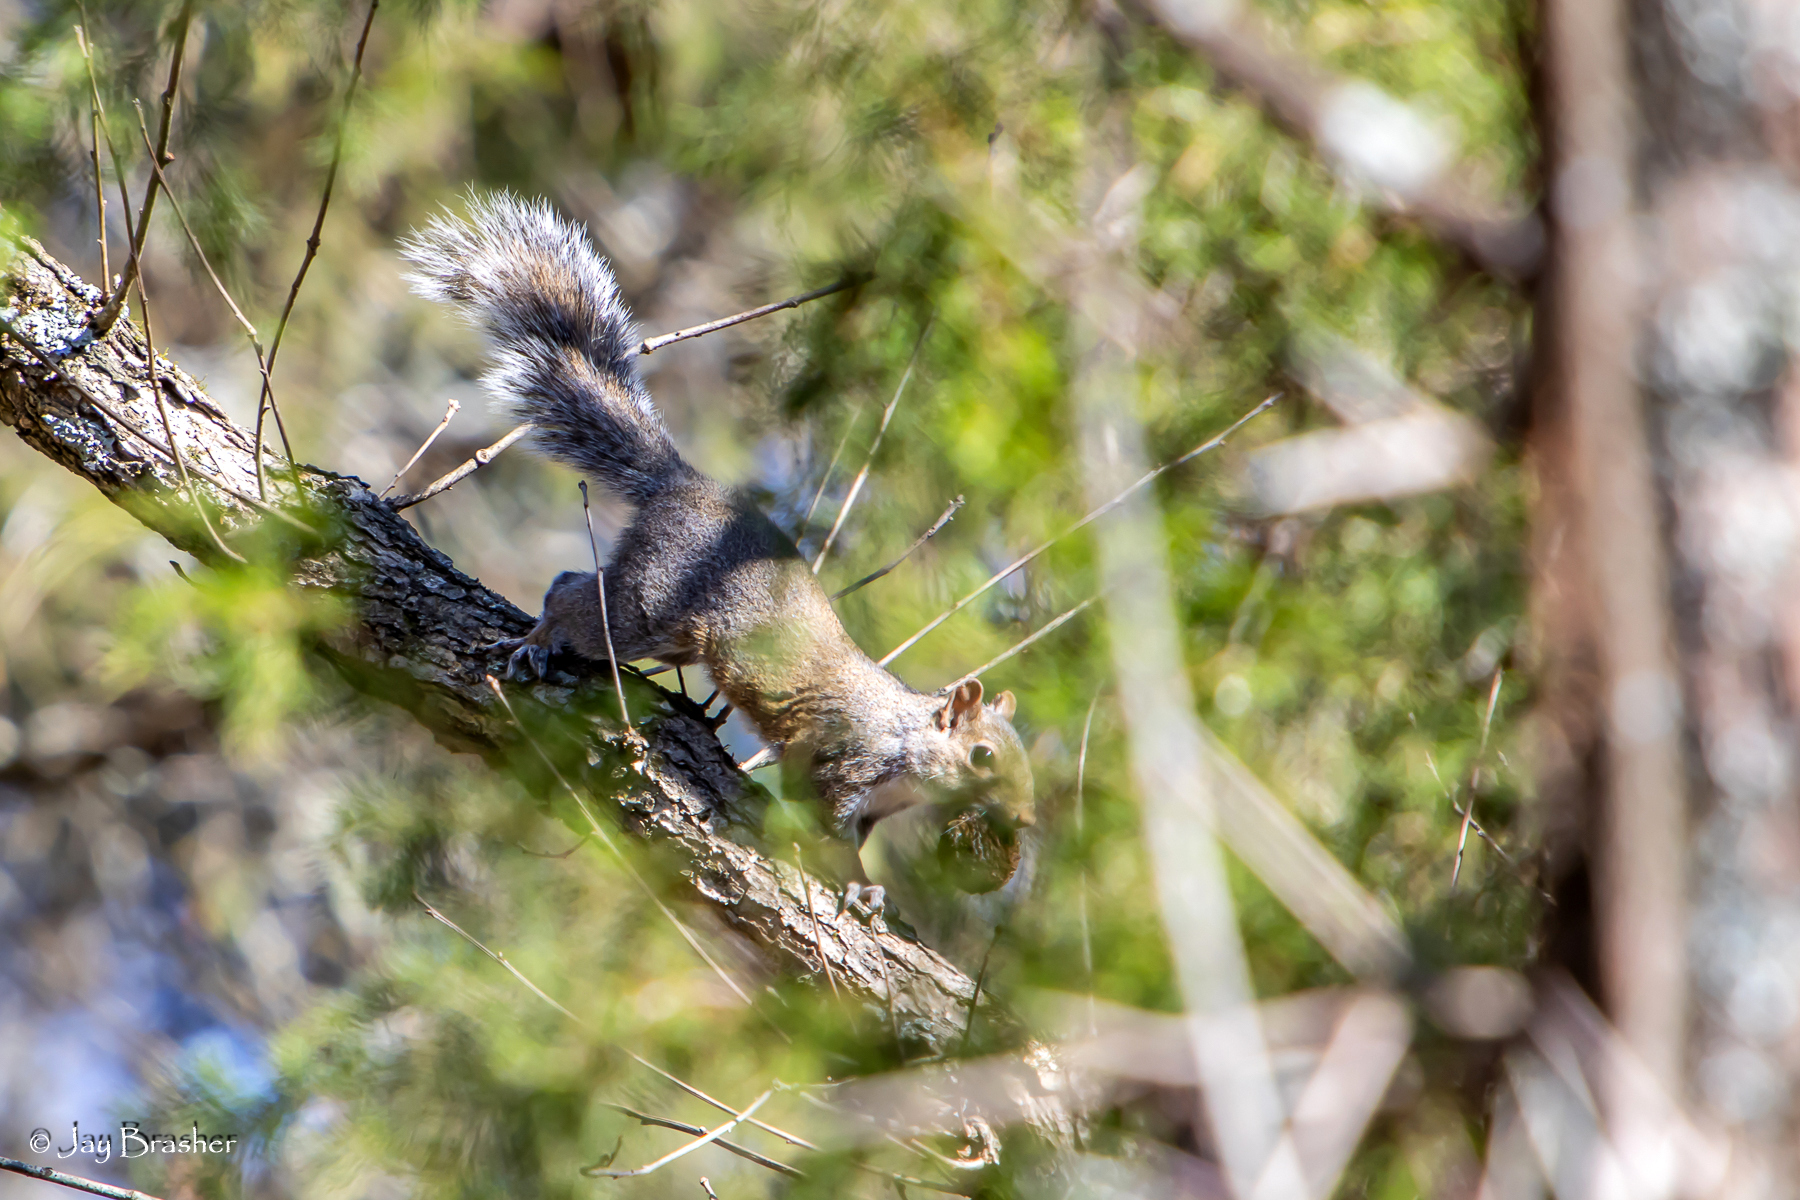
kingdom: Animalia
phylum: Chordata
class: Mammalia
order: Rodentia
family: Sciuridae
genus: Sciurus
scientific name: Sciurus carolinensis
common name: Eastern gray squirrel
